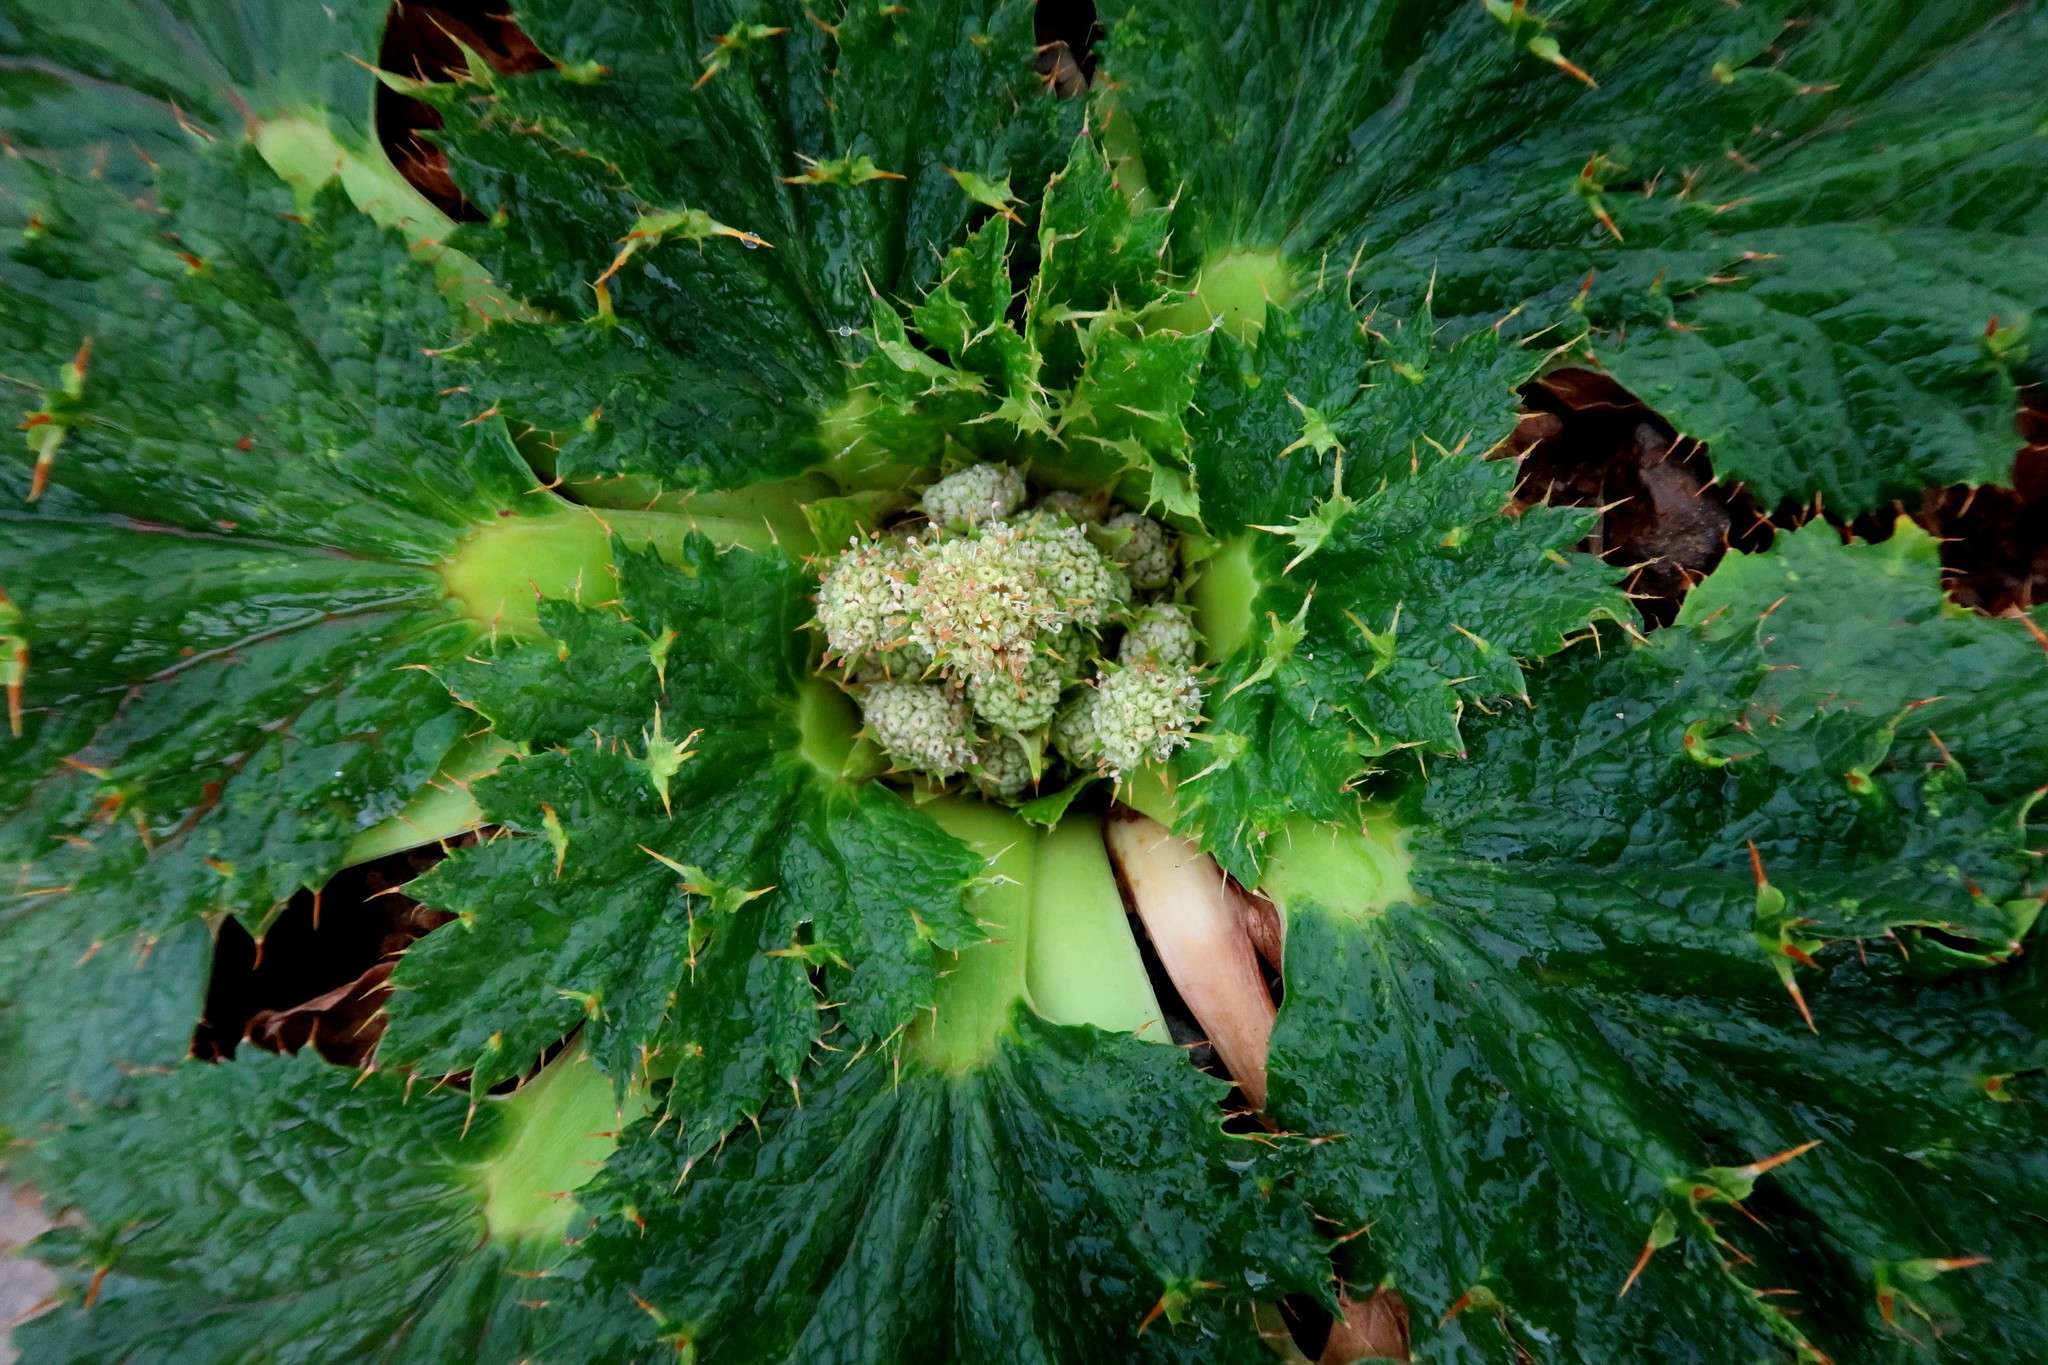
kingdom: Plantae
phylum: Tracheophyta
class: Magnoliopsida
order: Apiales
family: Apiaceae
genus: Arctopus
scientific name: Arctopus echinatus
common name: Platdoring
